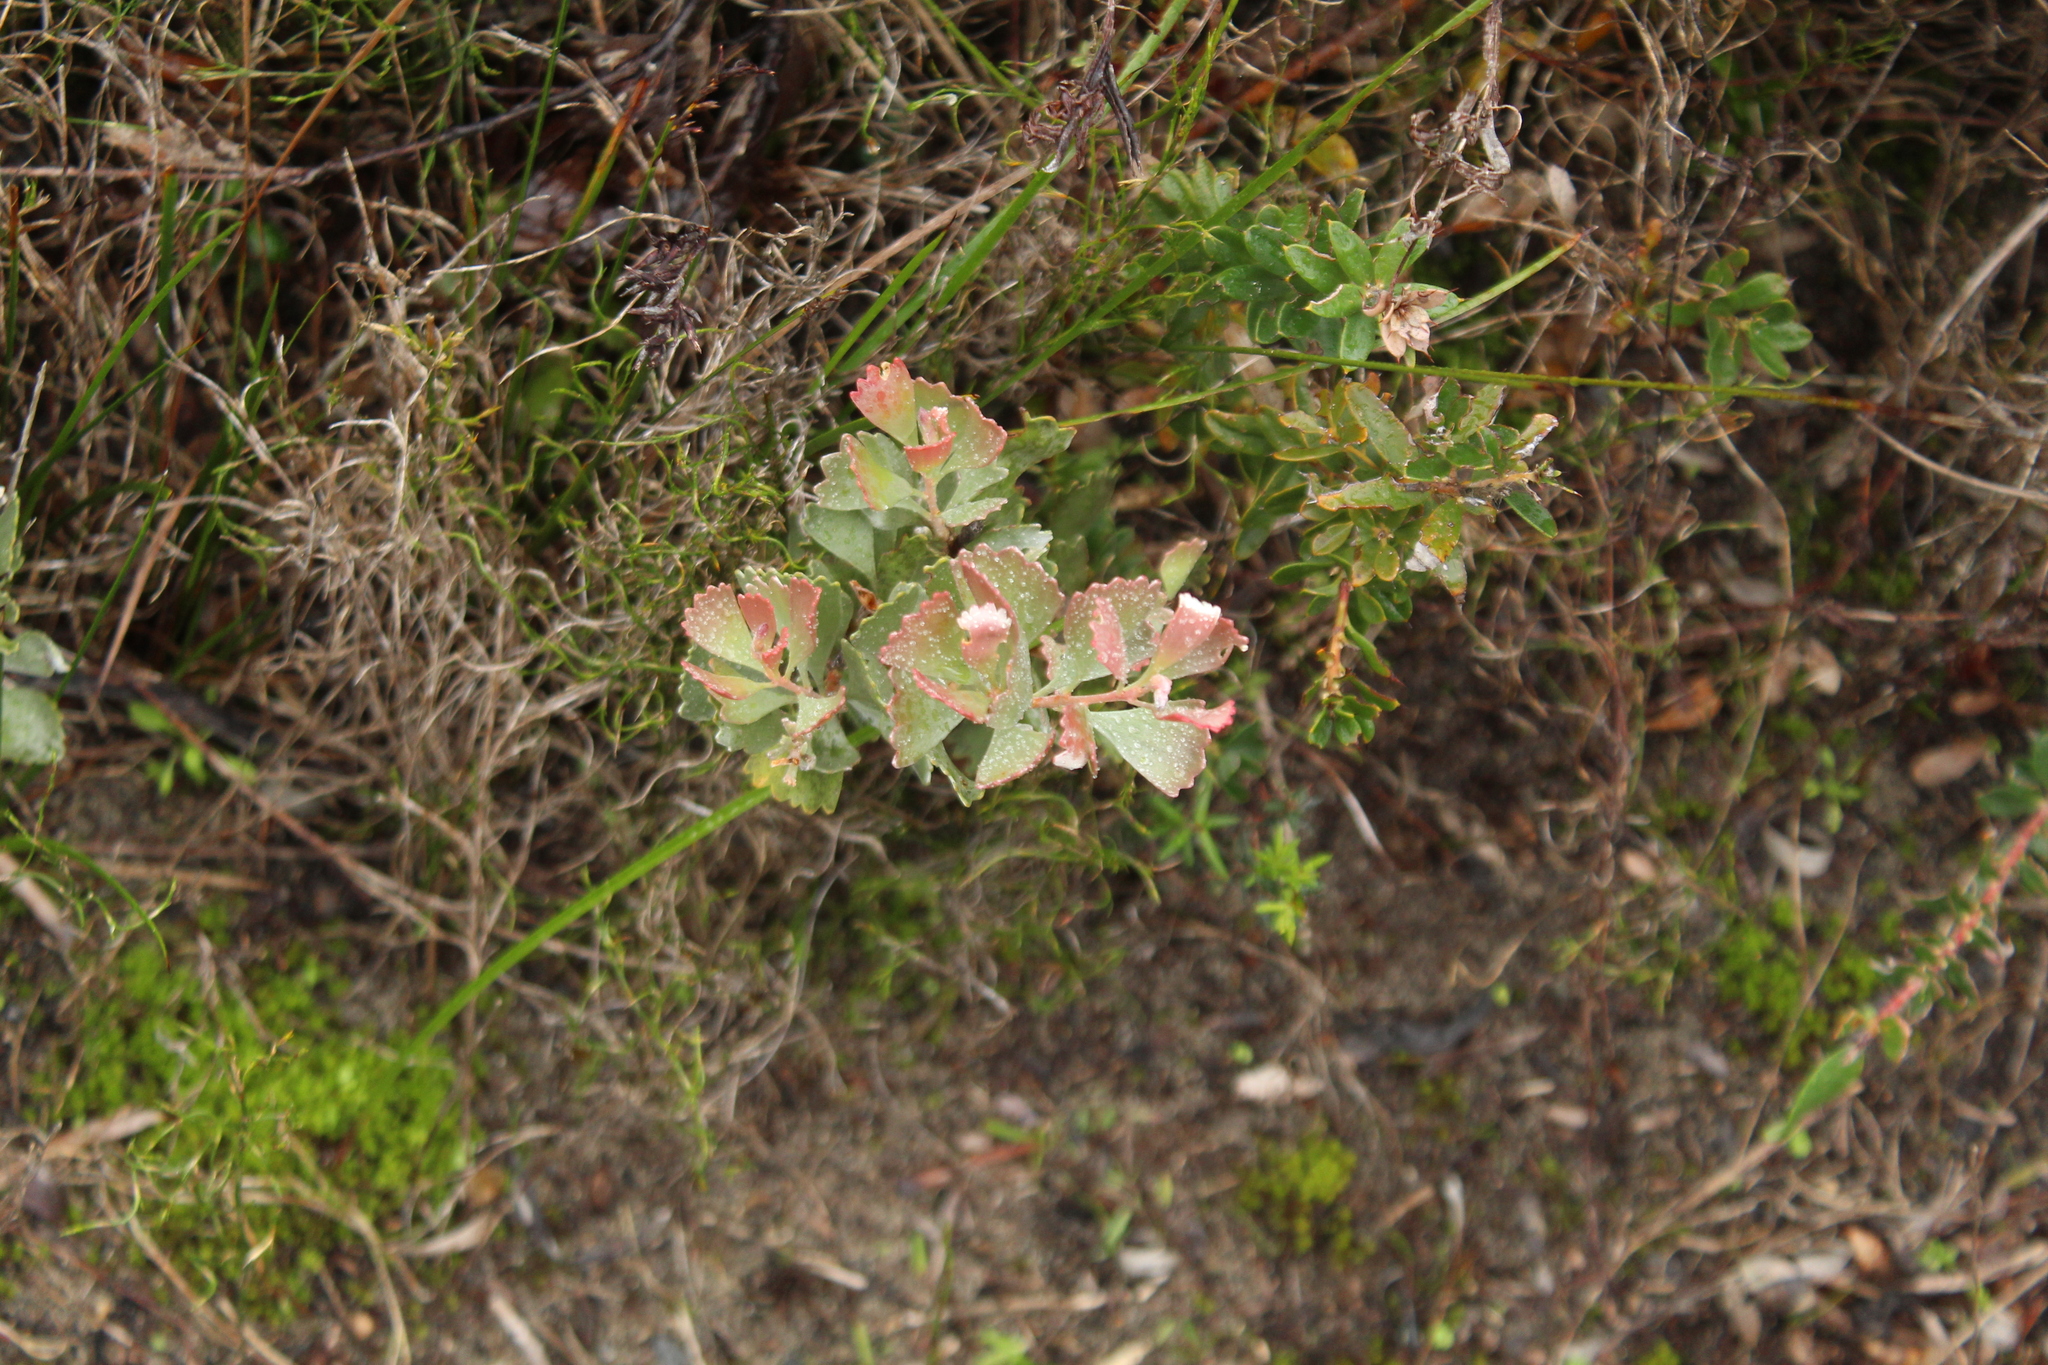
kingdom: Plantae
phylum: Tracheophyta
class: Magnoliopsida
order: Proteales
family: Proteaceae
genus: Adenanthos
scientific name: Adenanthos cuneatus
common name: Flamebush
